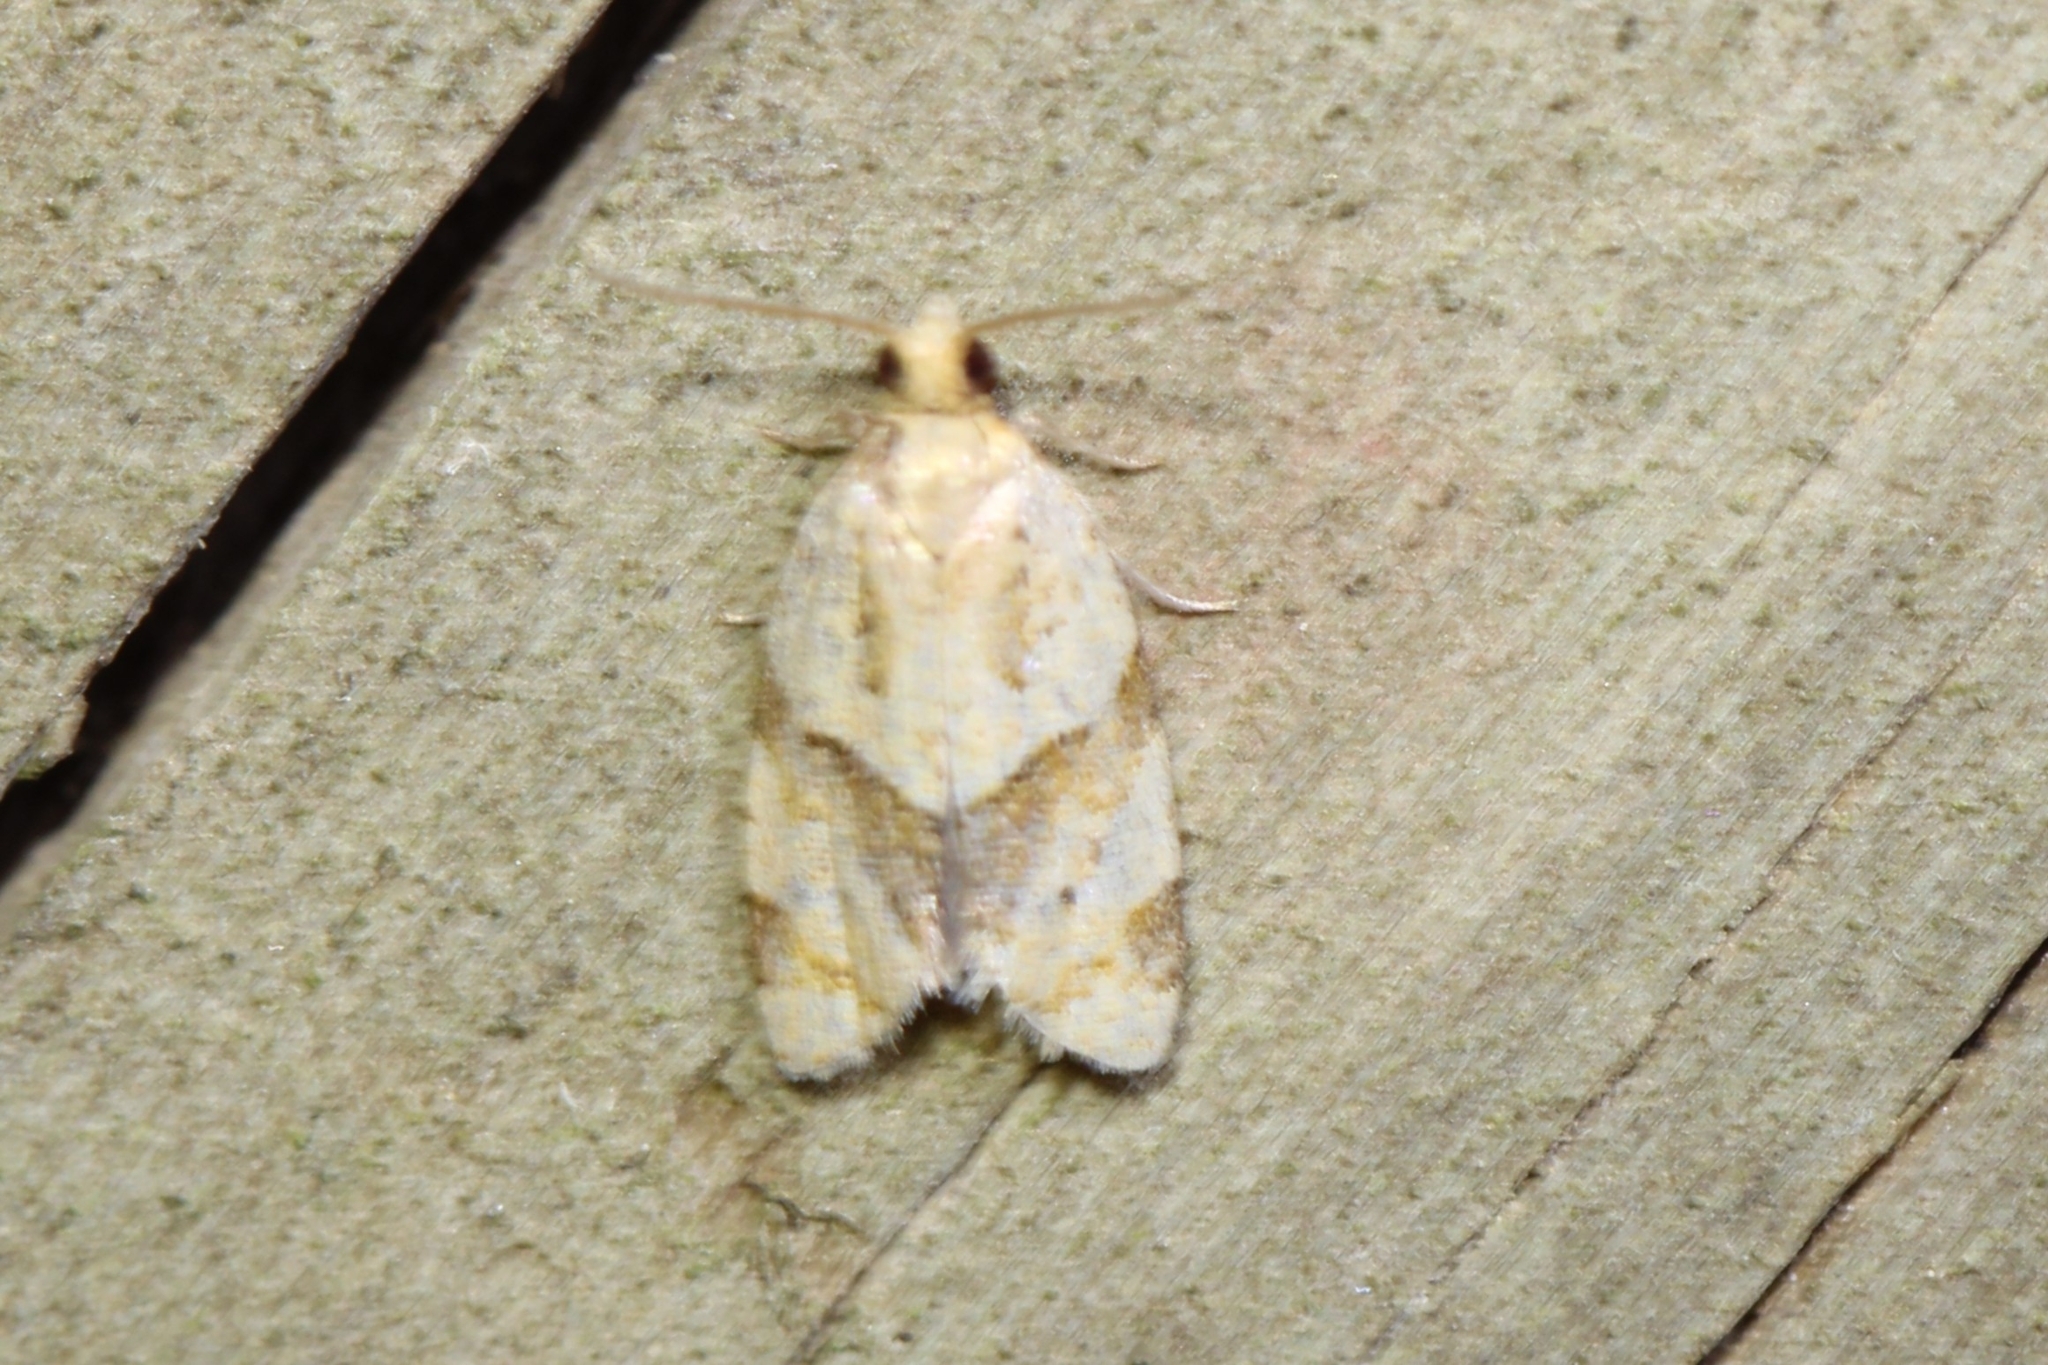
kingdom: Animalia
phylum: Arthropoda
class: Insecta
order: Lepidoptera
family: Tortricidae
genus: Clepsis
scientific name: Clepsis peritana
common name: Garden tortrix
